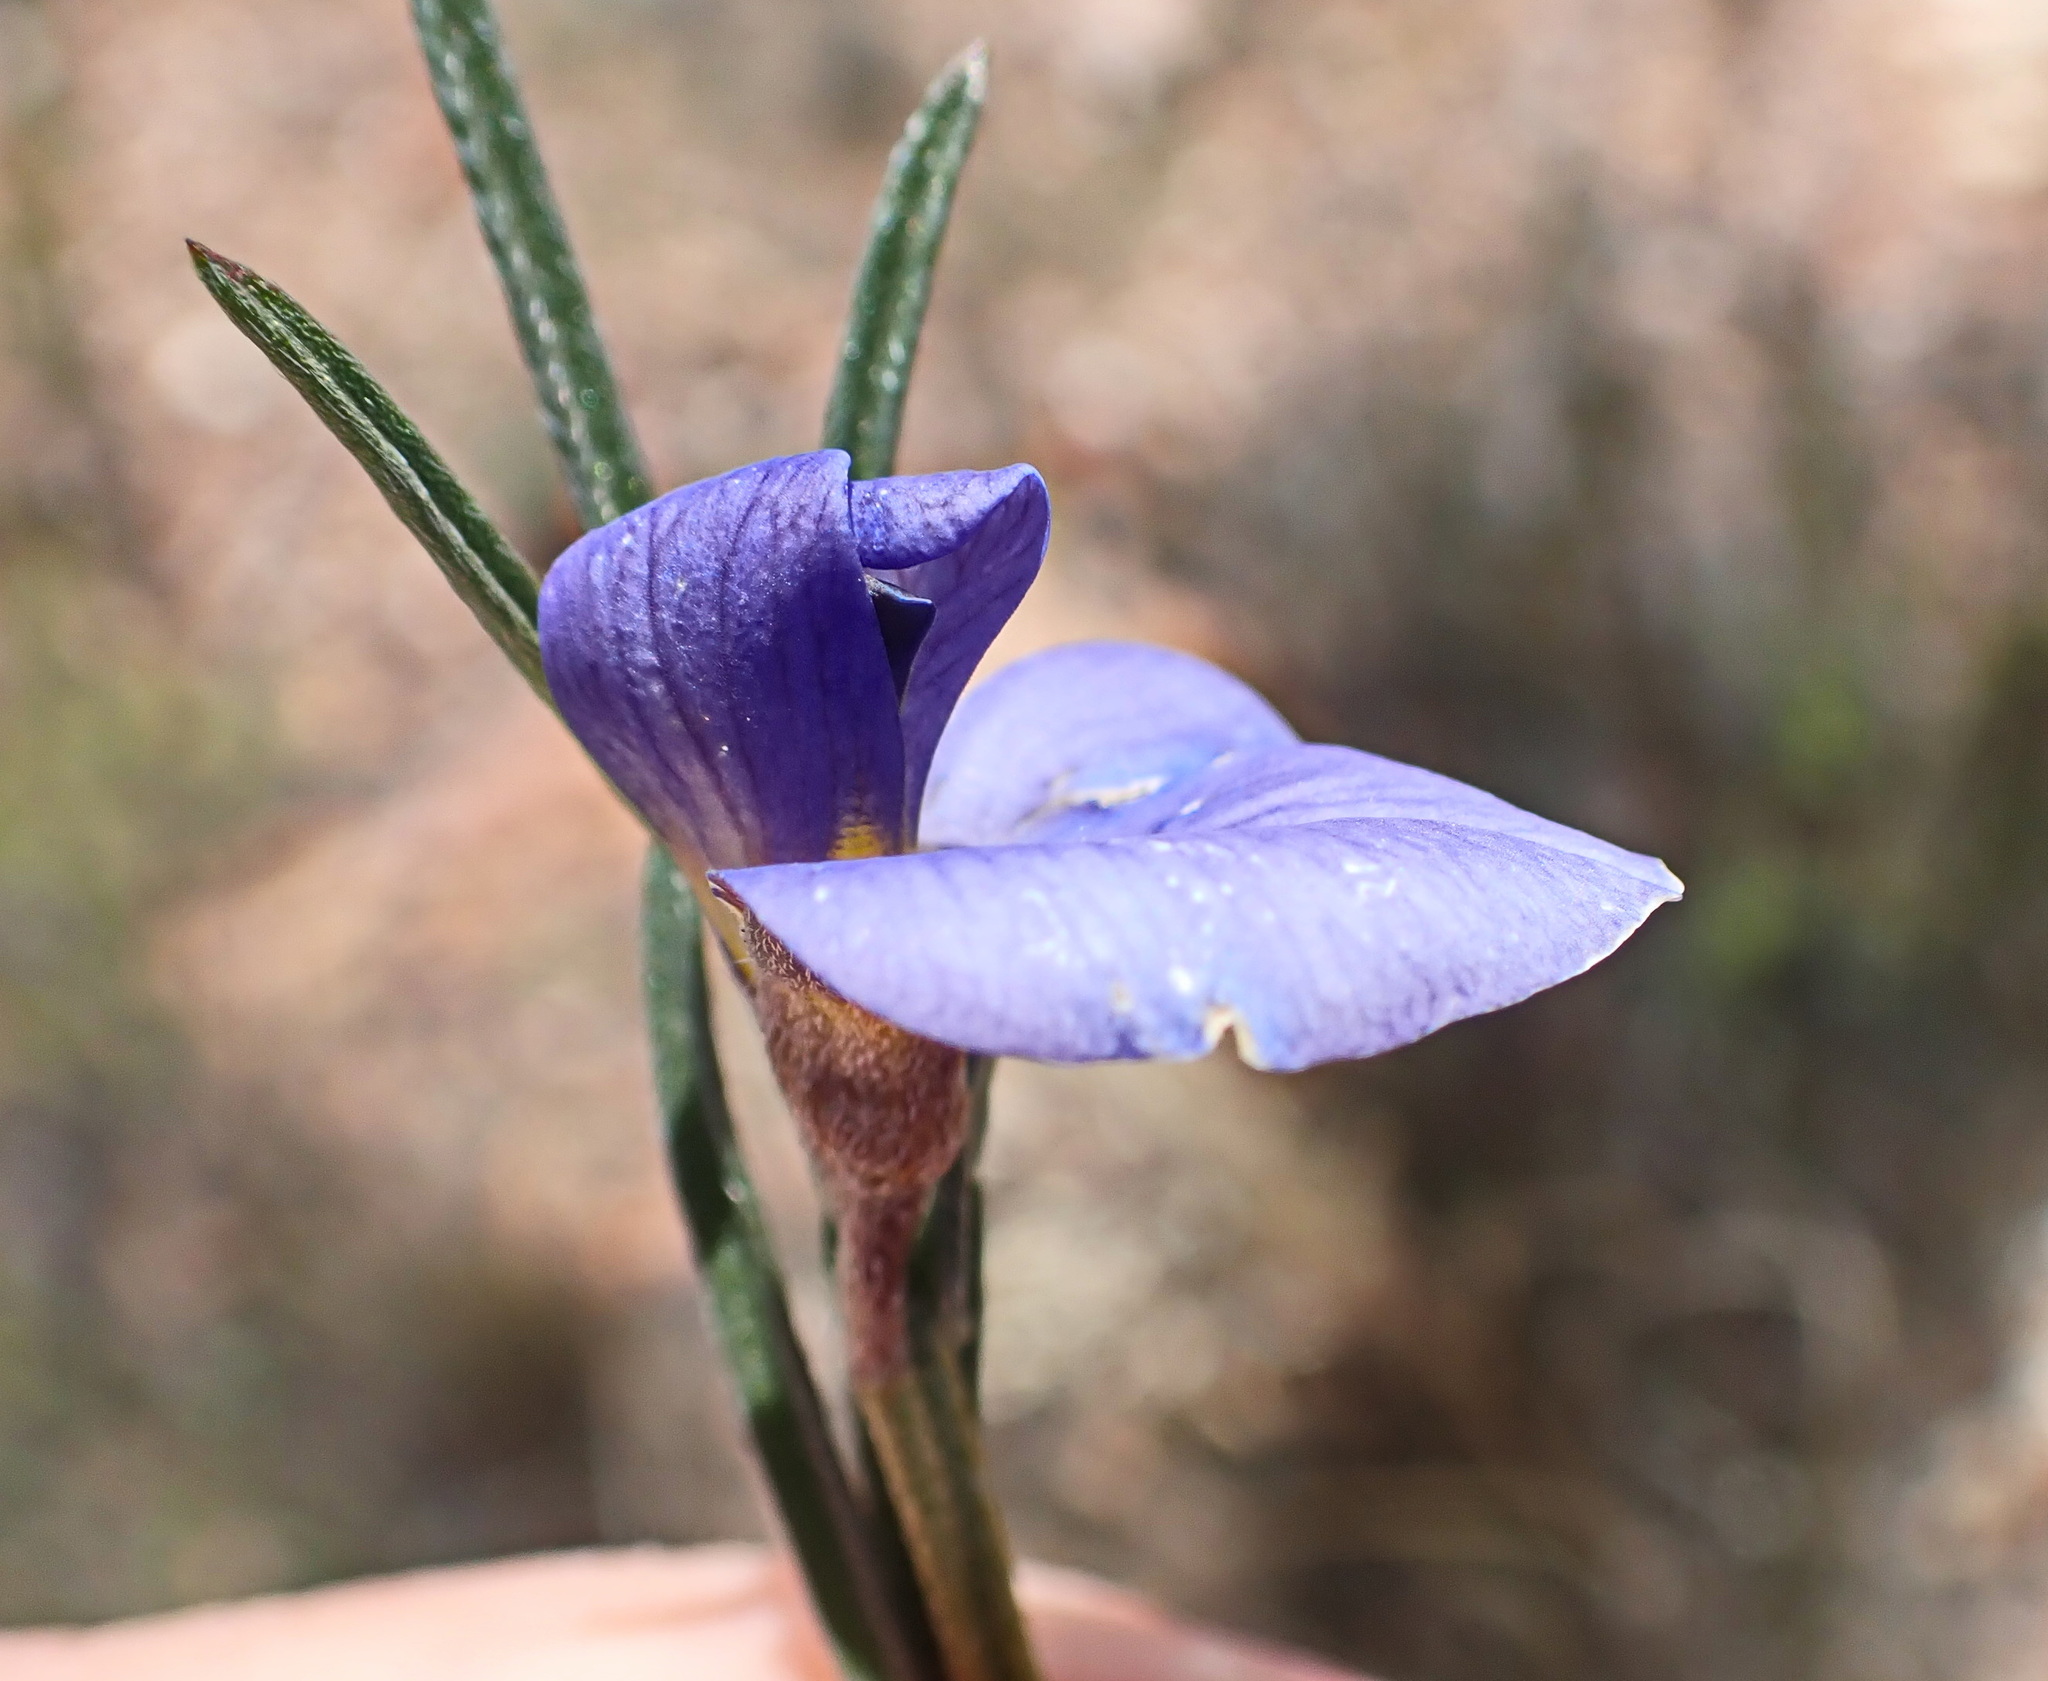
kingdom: Plantae
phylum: Tracheophyta
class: Magnoliopsida
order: Fabales
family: Fabaceae
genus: Lotononis
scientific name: Lotononis filiformis
